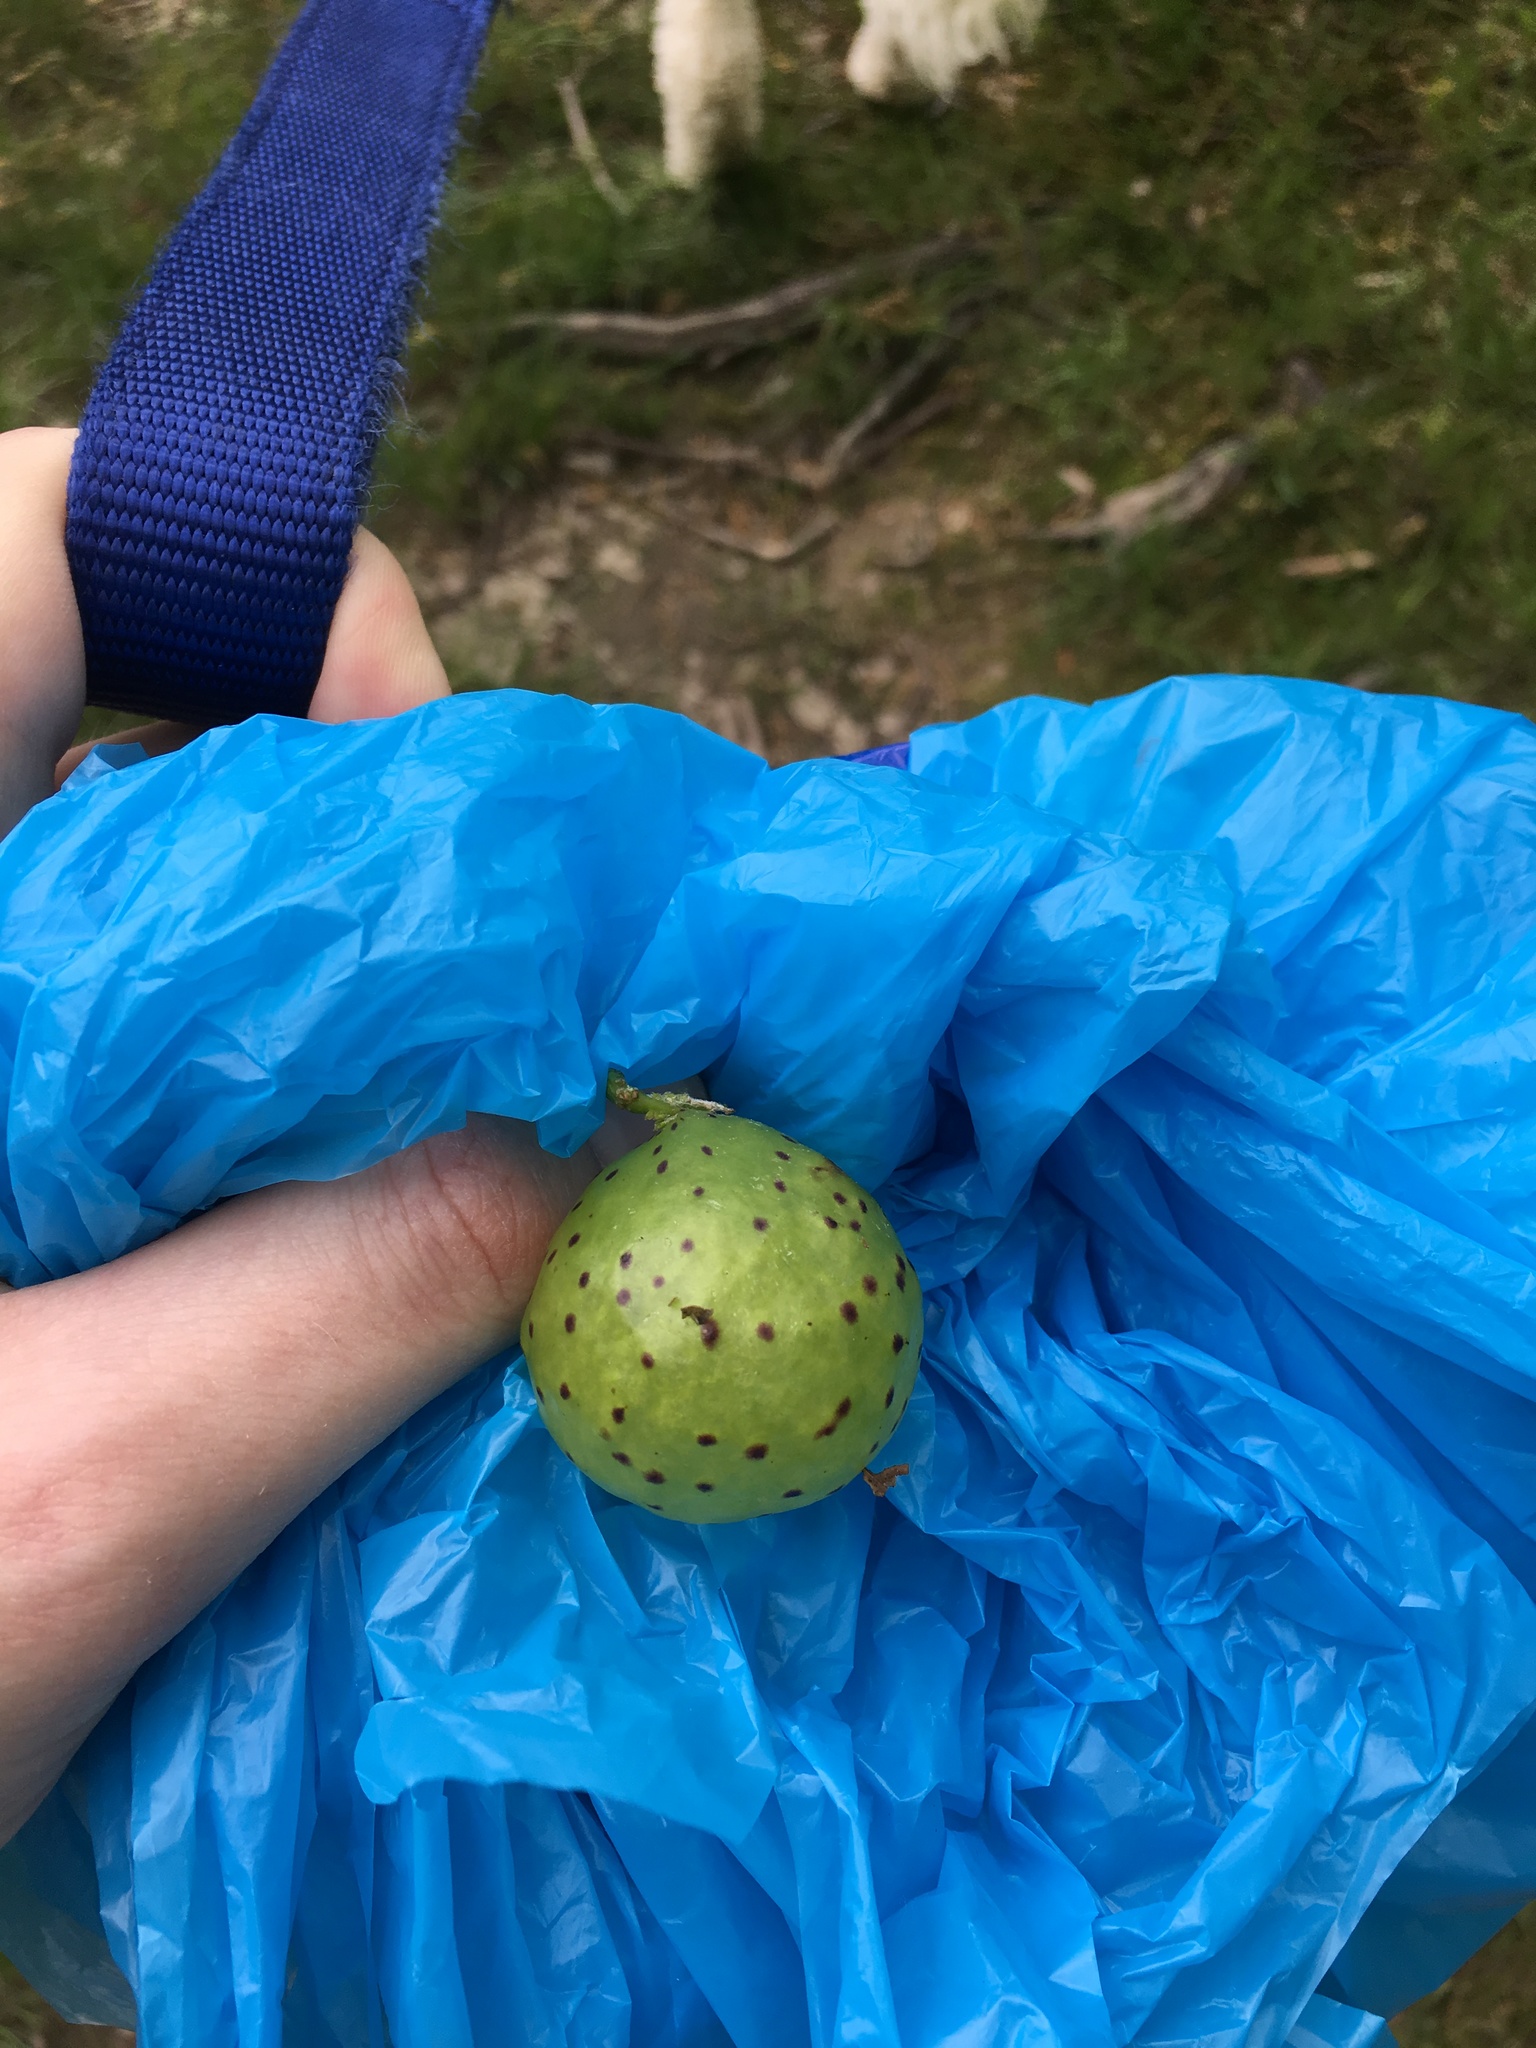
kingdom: Animalia
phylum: Arthropoda
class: Insecta
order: Hymenoptera
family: Cynipidae
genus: Amphibolips
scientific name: Amphibolips
